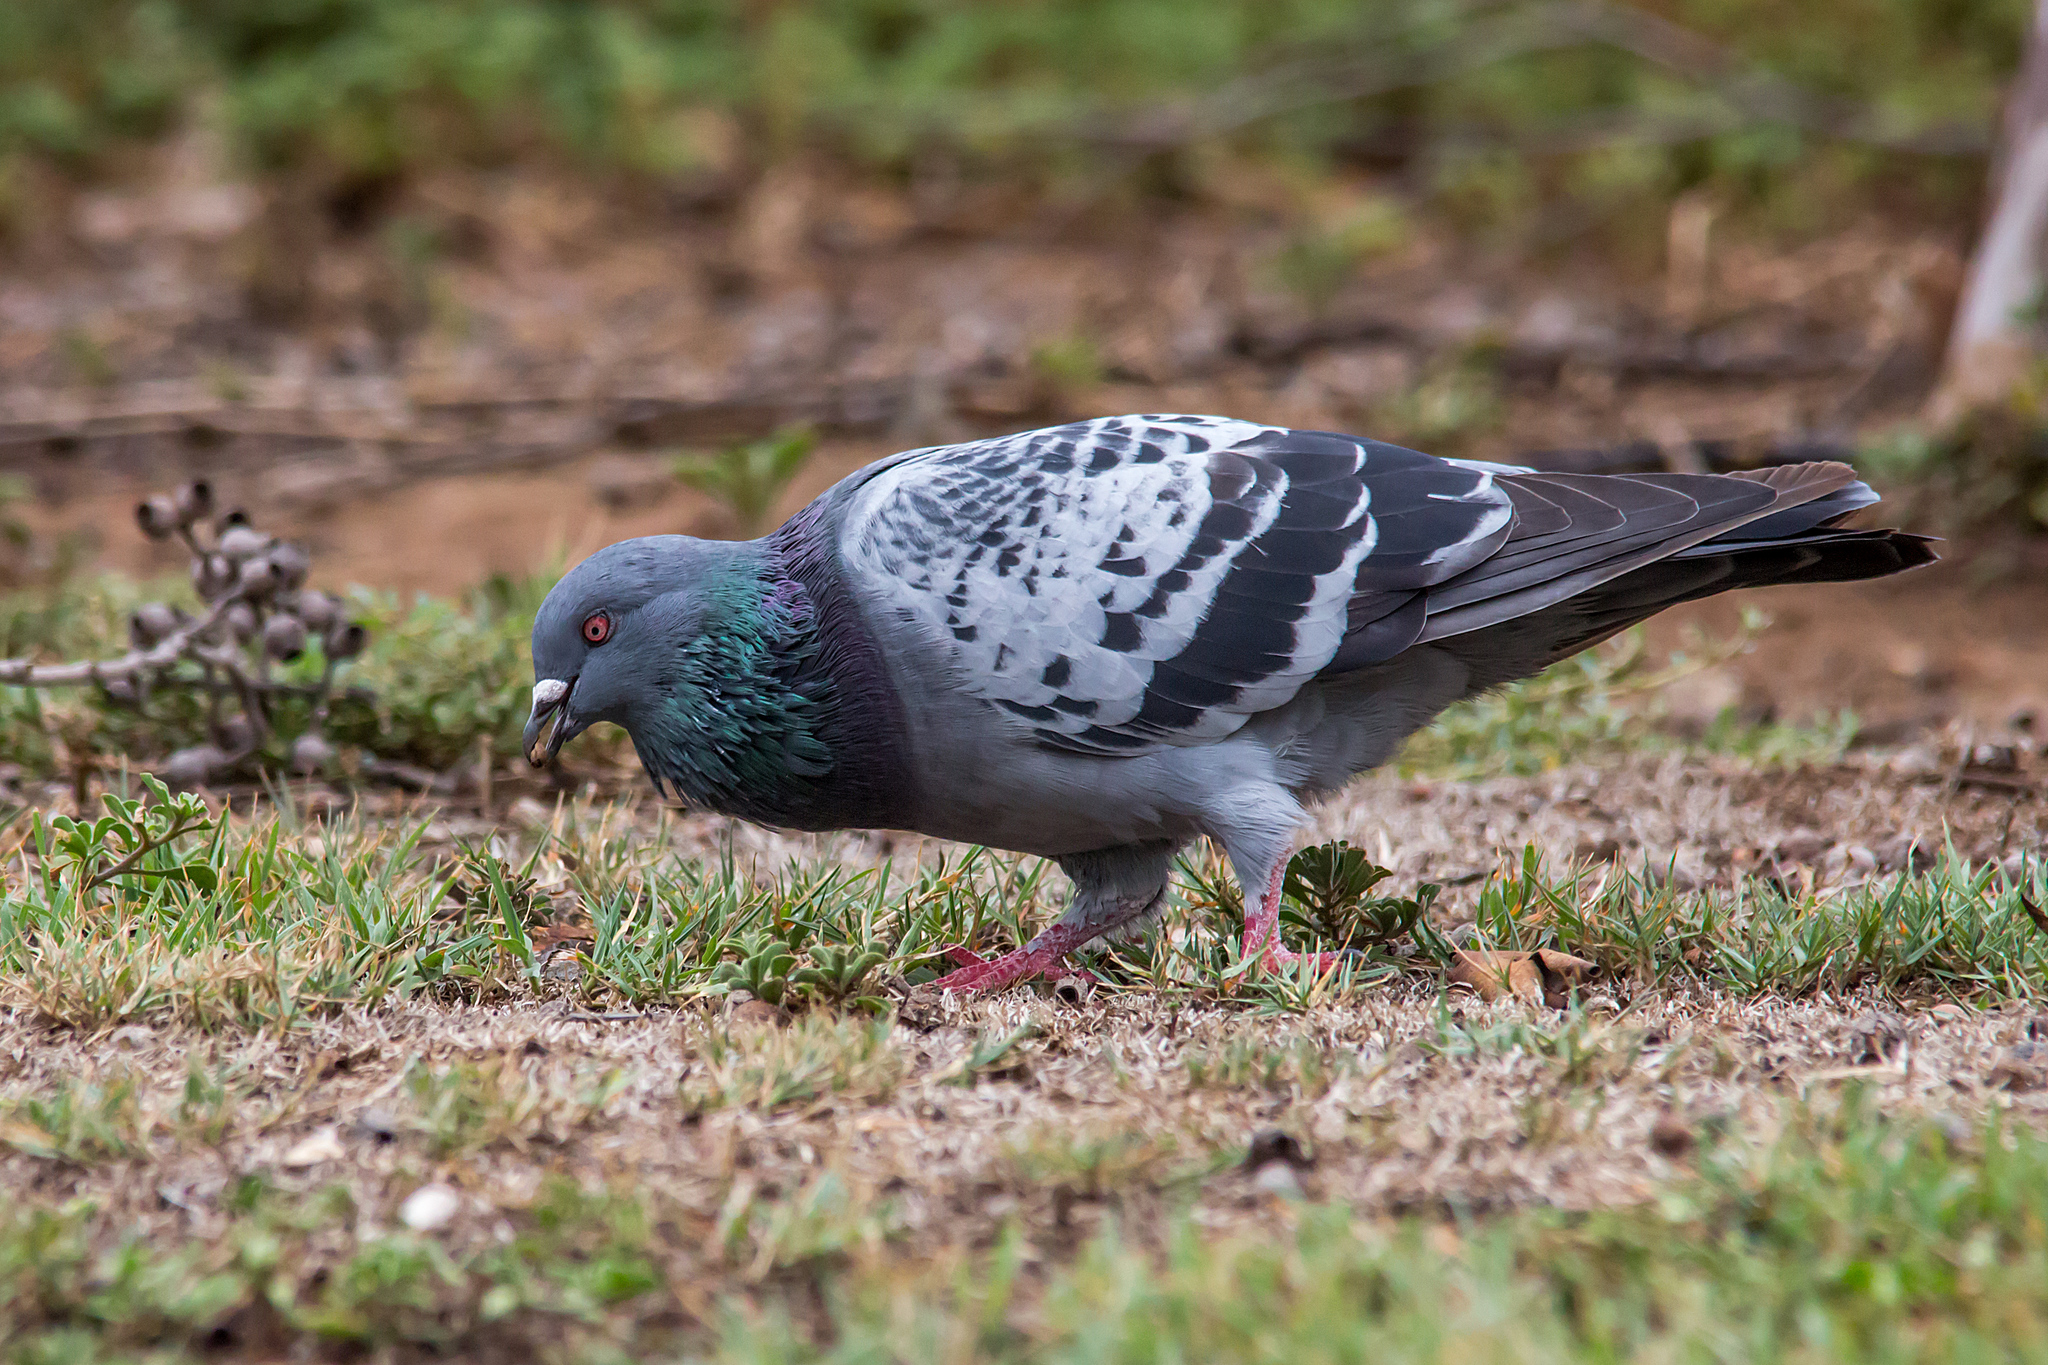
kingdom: Animalia
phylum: Chordata
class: Aves
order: Columbiformes
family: Columbidae
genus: Columba
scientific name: Columba livia
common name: Rock pigeon
